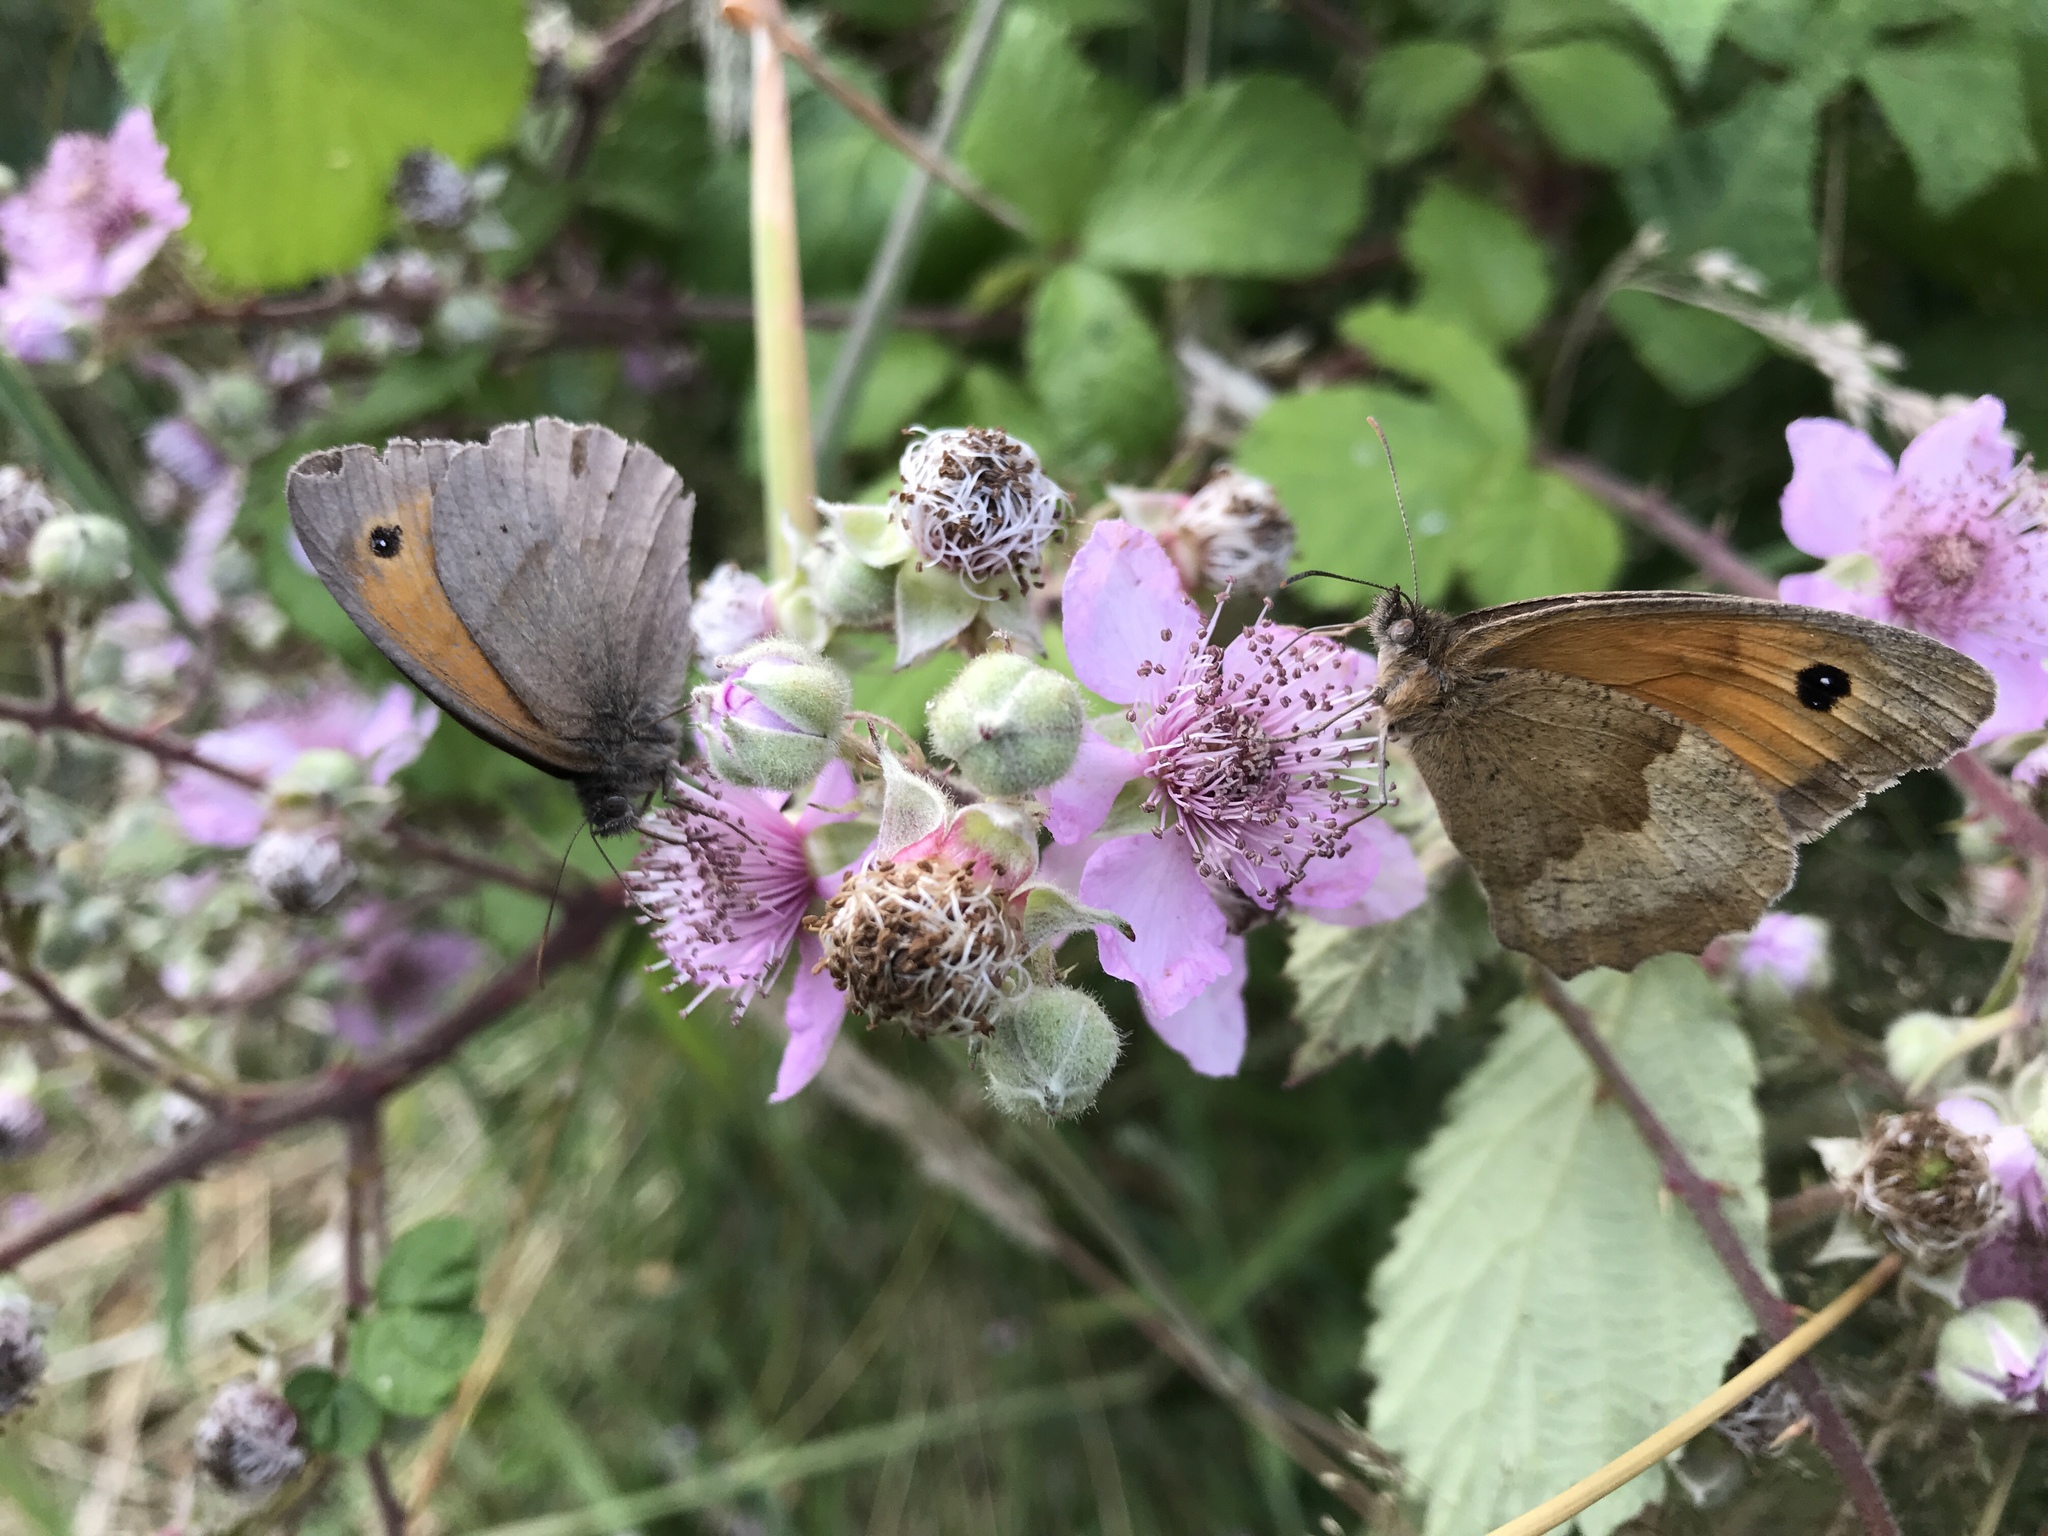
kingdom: Animalia
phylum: Arthropoda
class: Insecta
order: Lepidoptera
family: Nymphalidae
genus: Maniola
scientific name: Maniola jurtina
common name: Meadow brown
